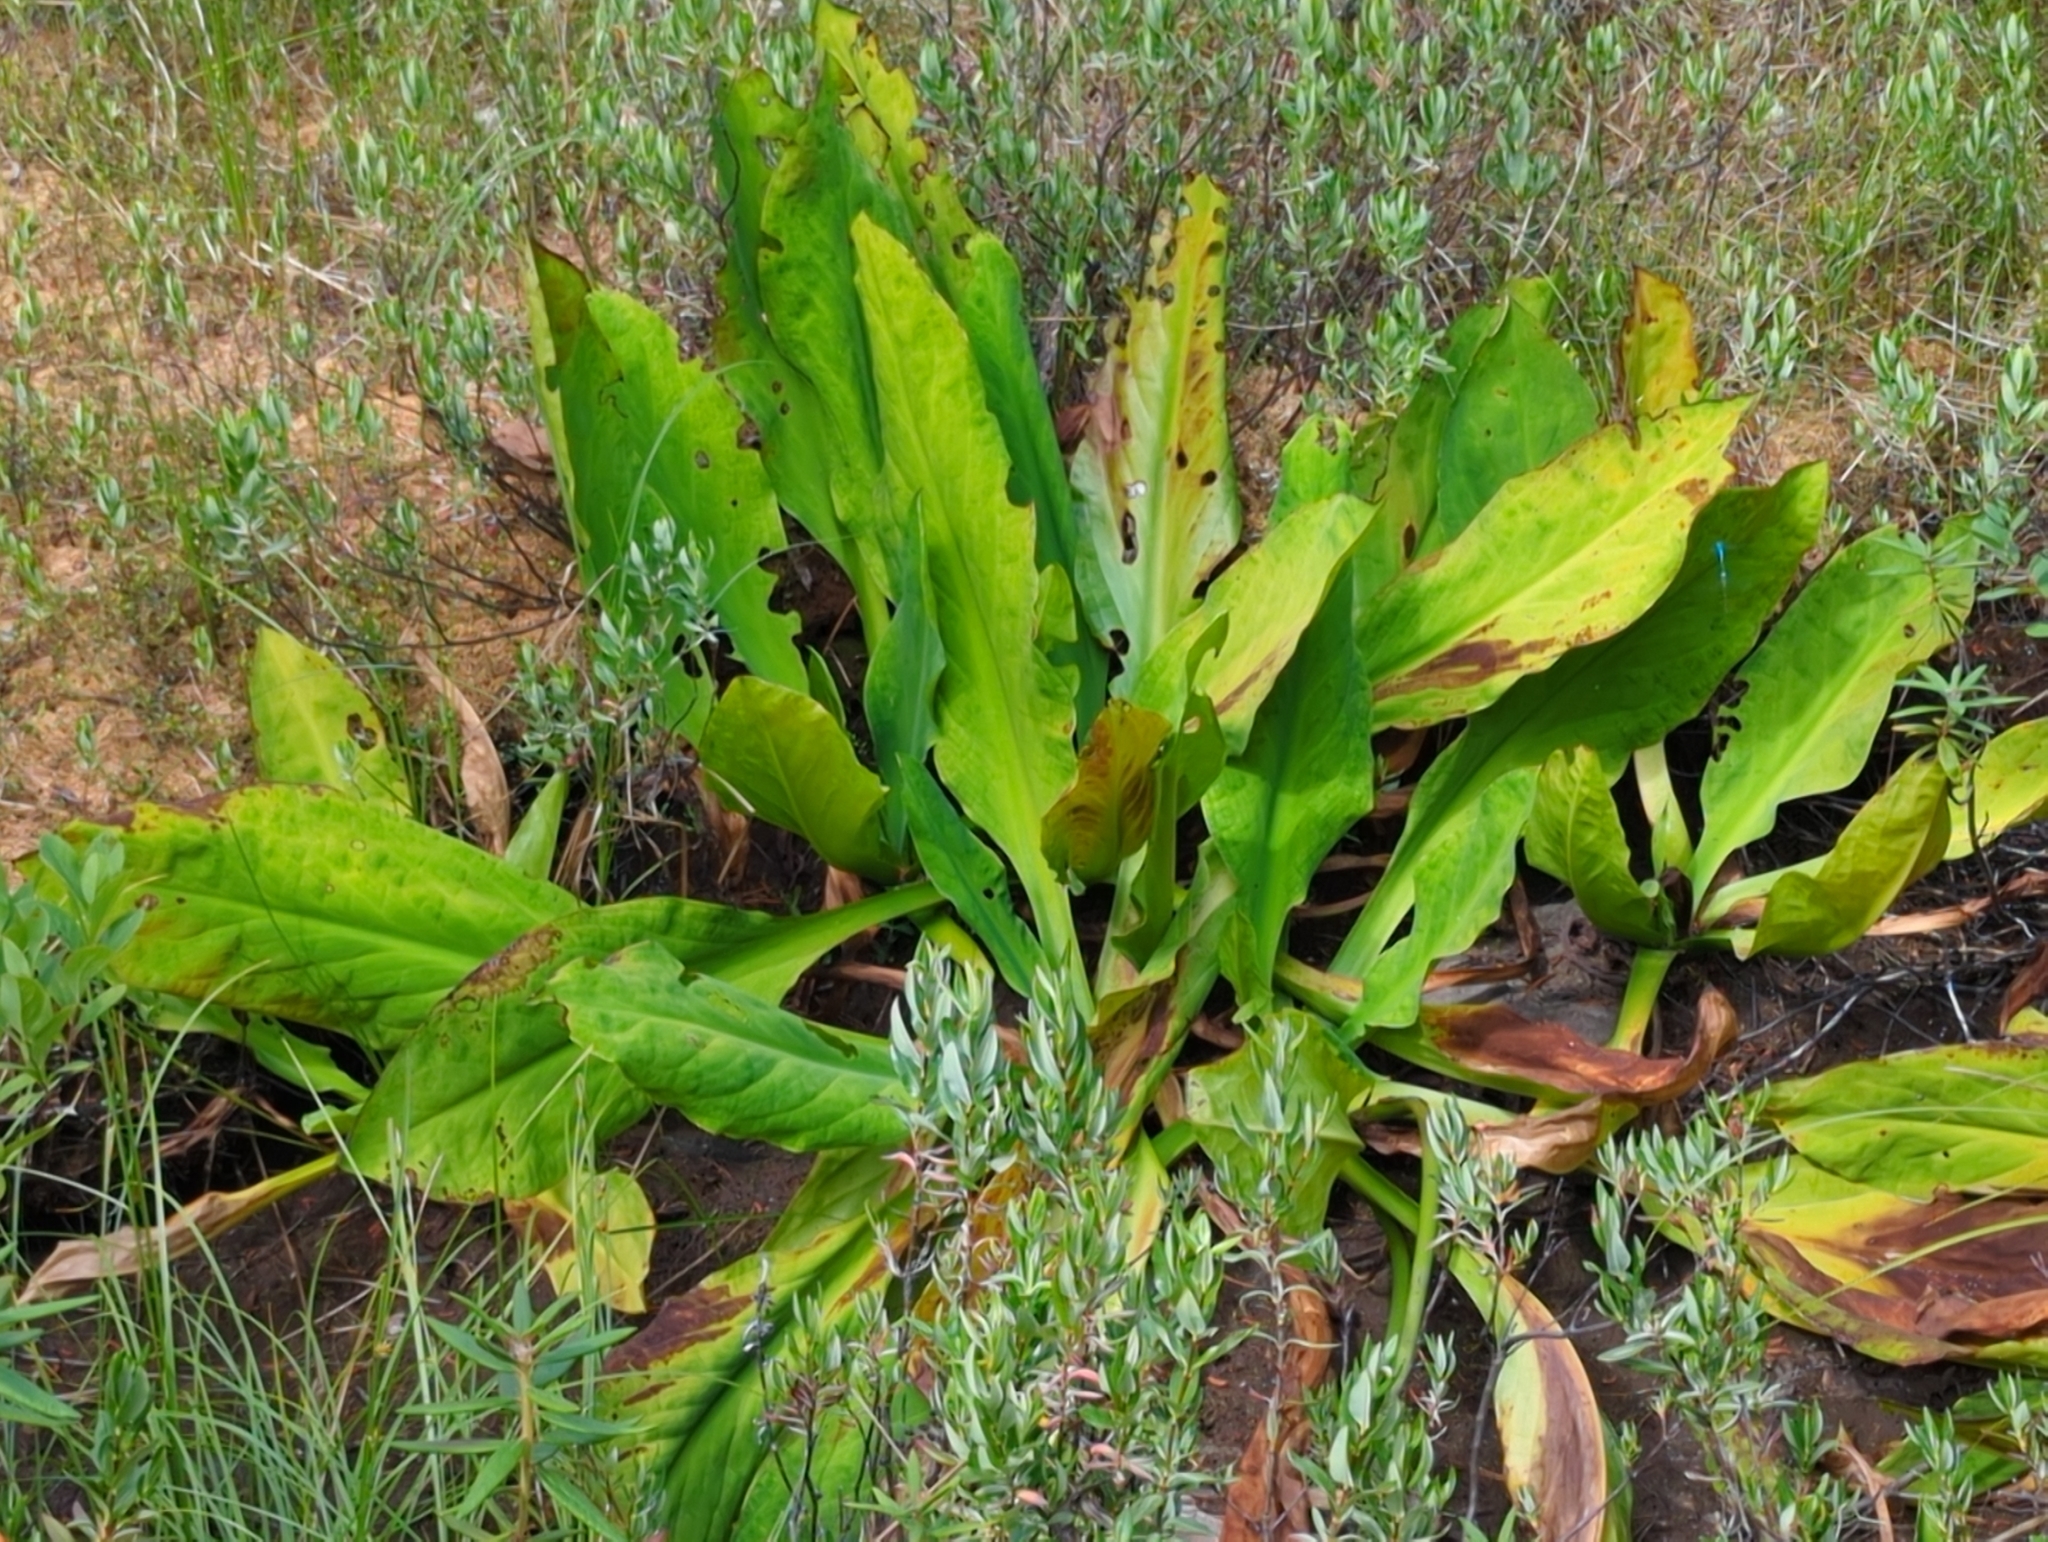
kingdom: Plantae
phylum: Tracheophyta
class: Liliopsida
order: Alismatales
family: Araceae
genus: Lysichiton
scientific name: Lysichiton americanus
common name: American skunk cabbage
